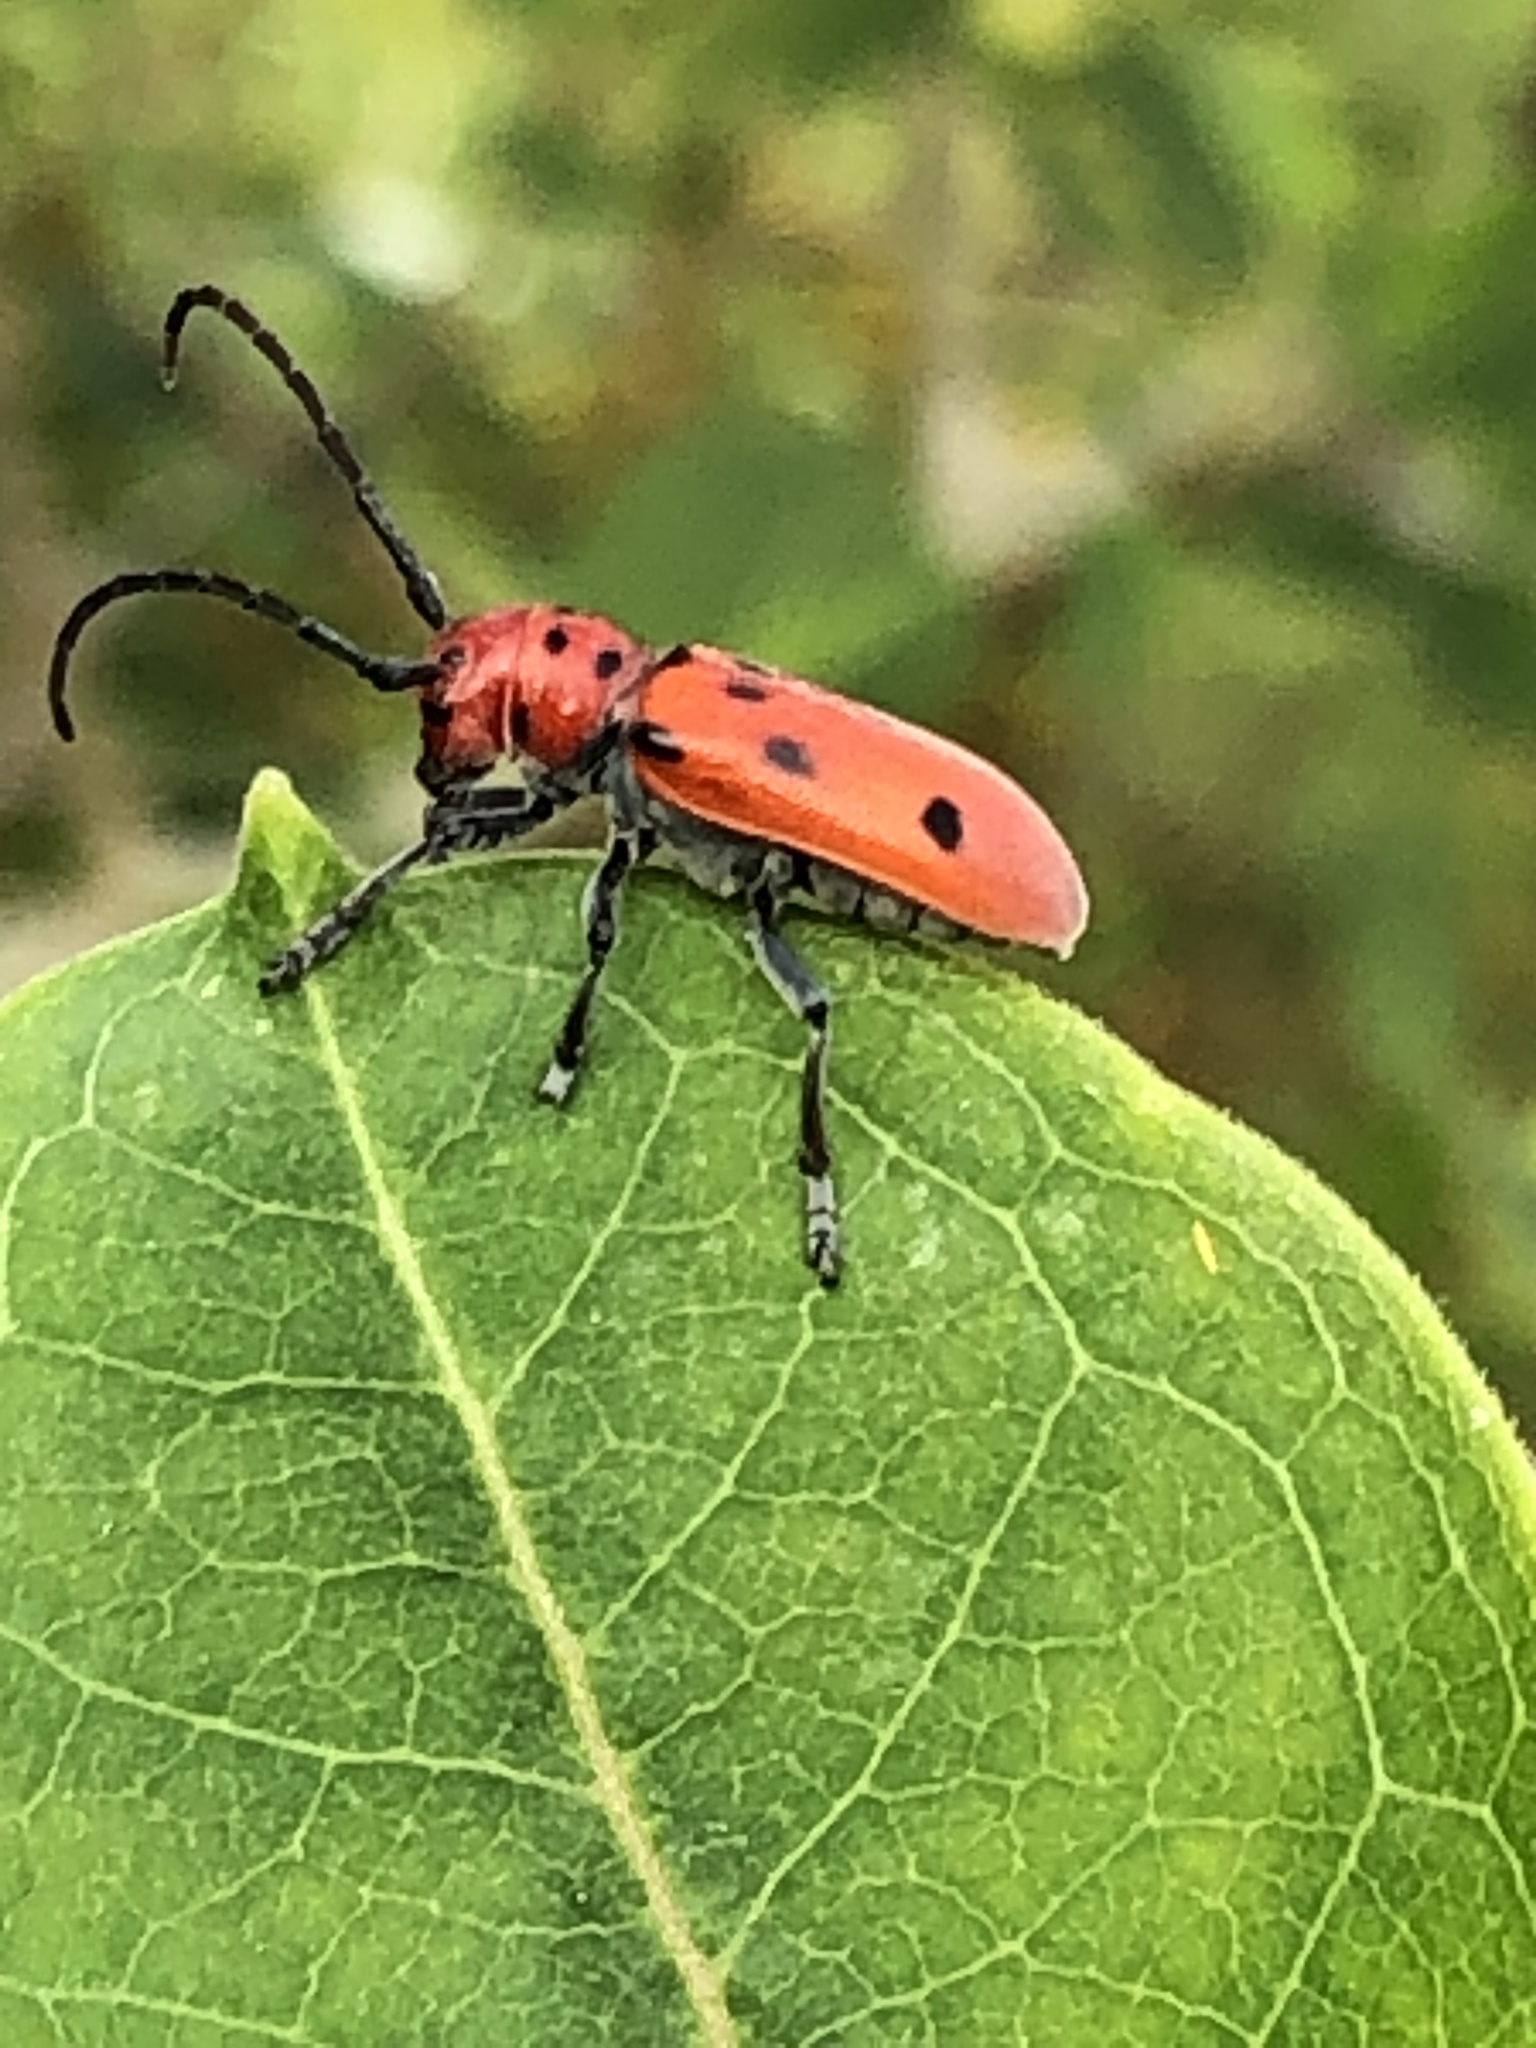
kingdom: Animalia
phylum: Arthropoda
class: Insecta
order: Coleoptera
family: Cerambycidae
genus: Tetraopes
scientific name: Tetraopes tetrophthalmus
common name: Red milkweed beetle
